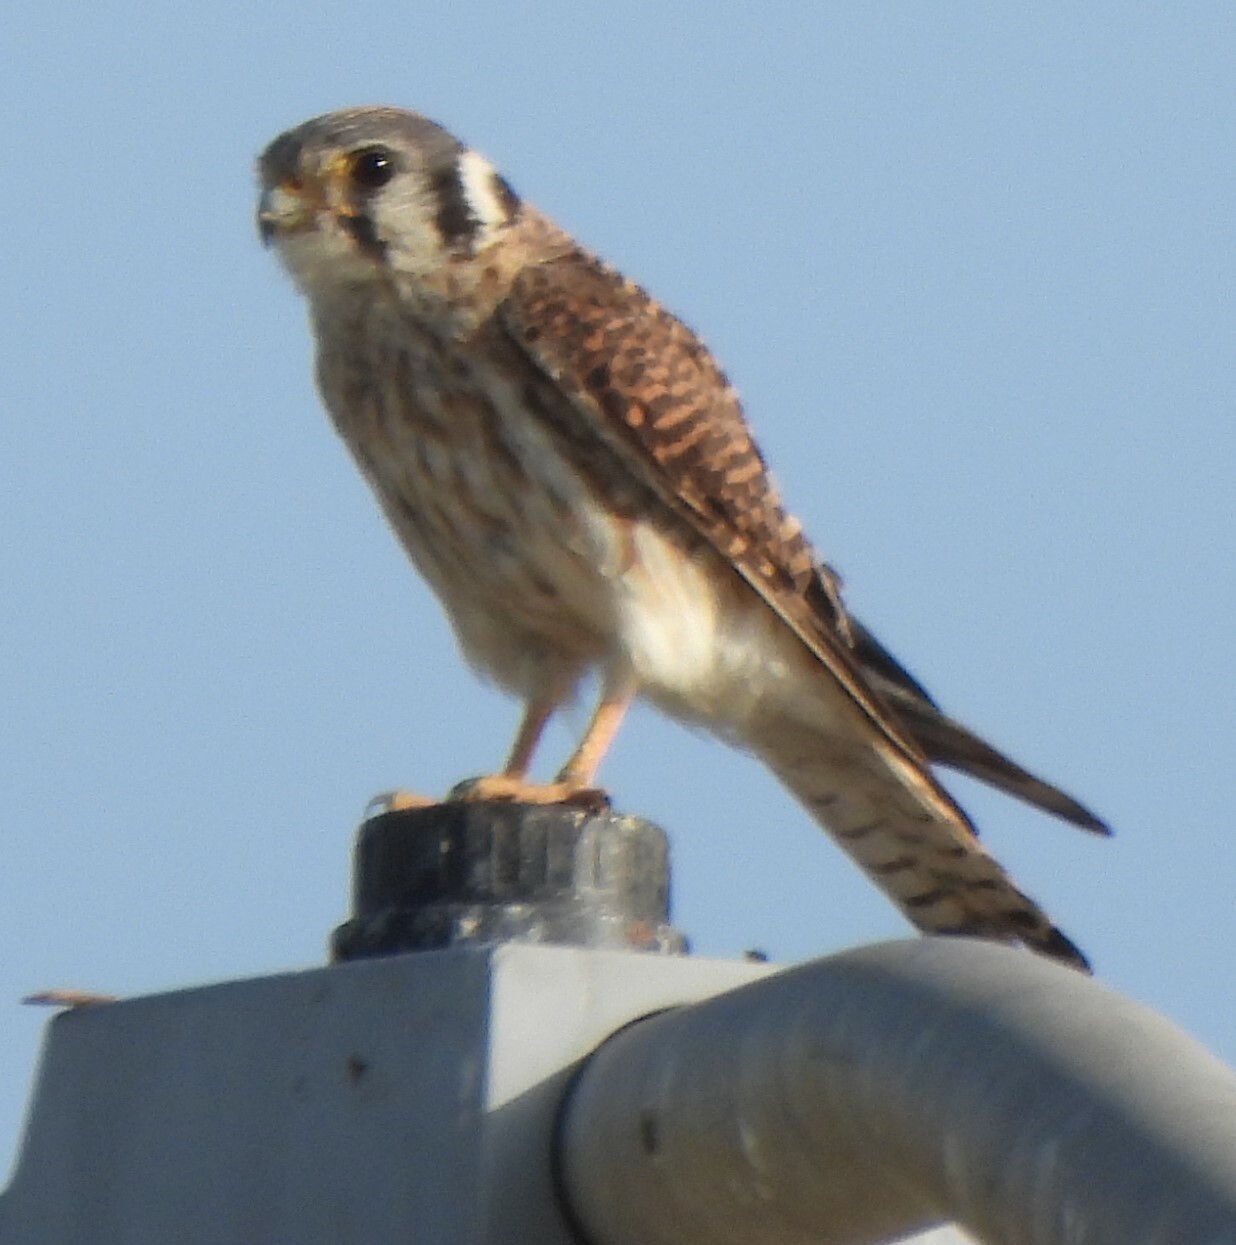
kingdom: Animalia
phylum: Chordata
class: Aves
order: Falconiformes
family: Falconidae
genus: Falco
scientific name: Falco sparverius
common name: American kestrel
